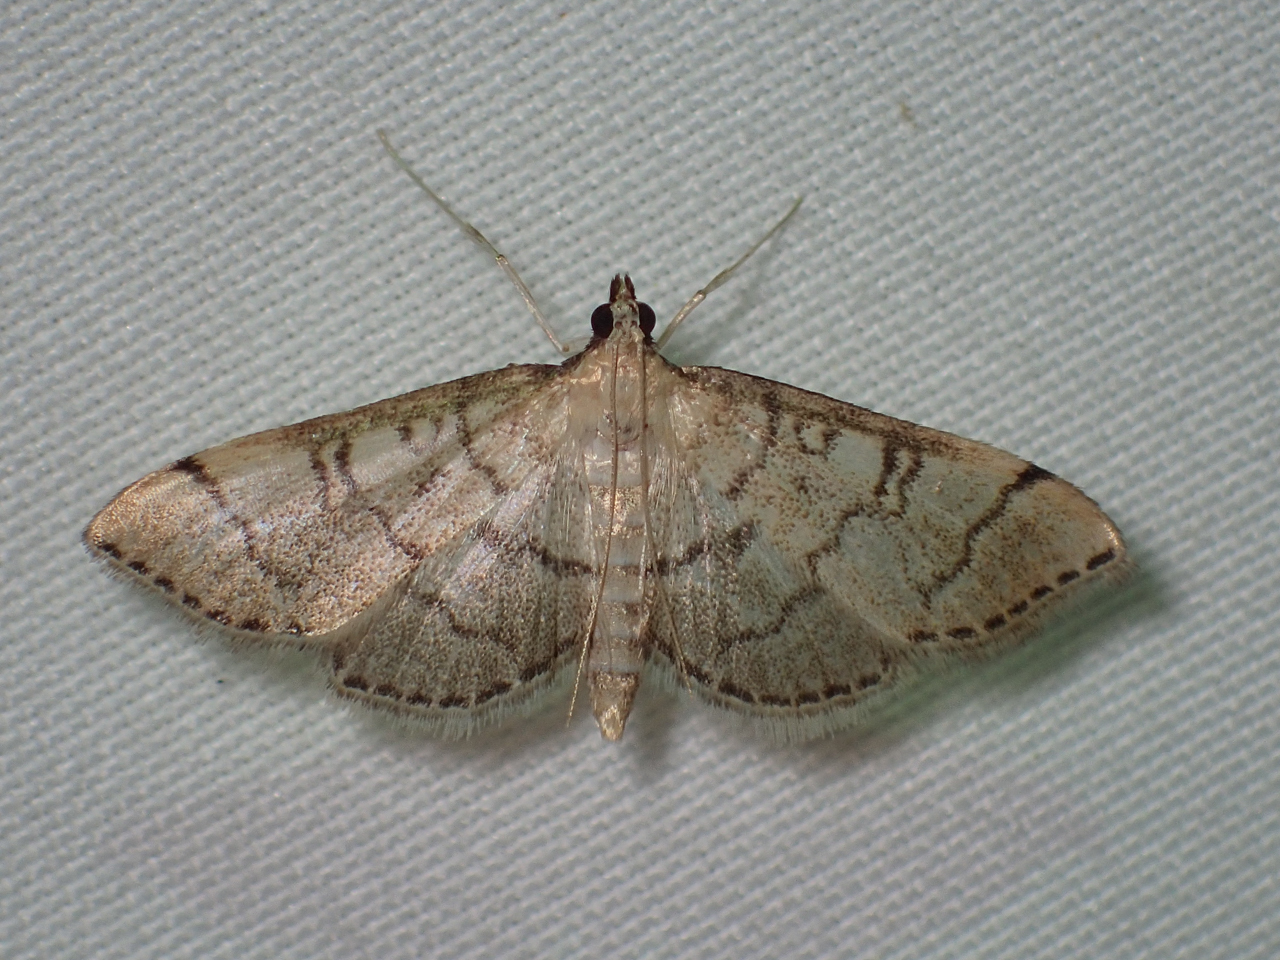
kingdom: Animalia
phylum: Arthropoda
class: Insecta
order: Lepidoptera
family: Crambidae
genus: Lamprosema
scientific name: Lamprosema Blepharomastix ranalis
